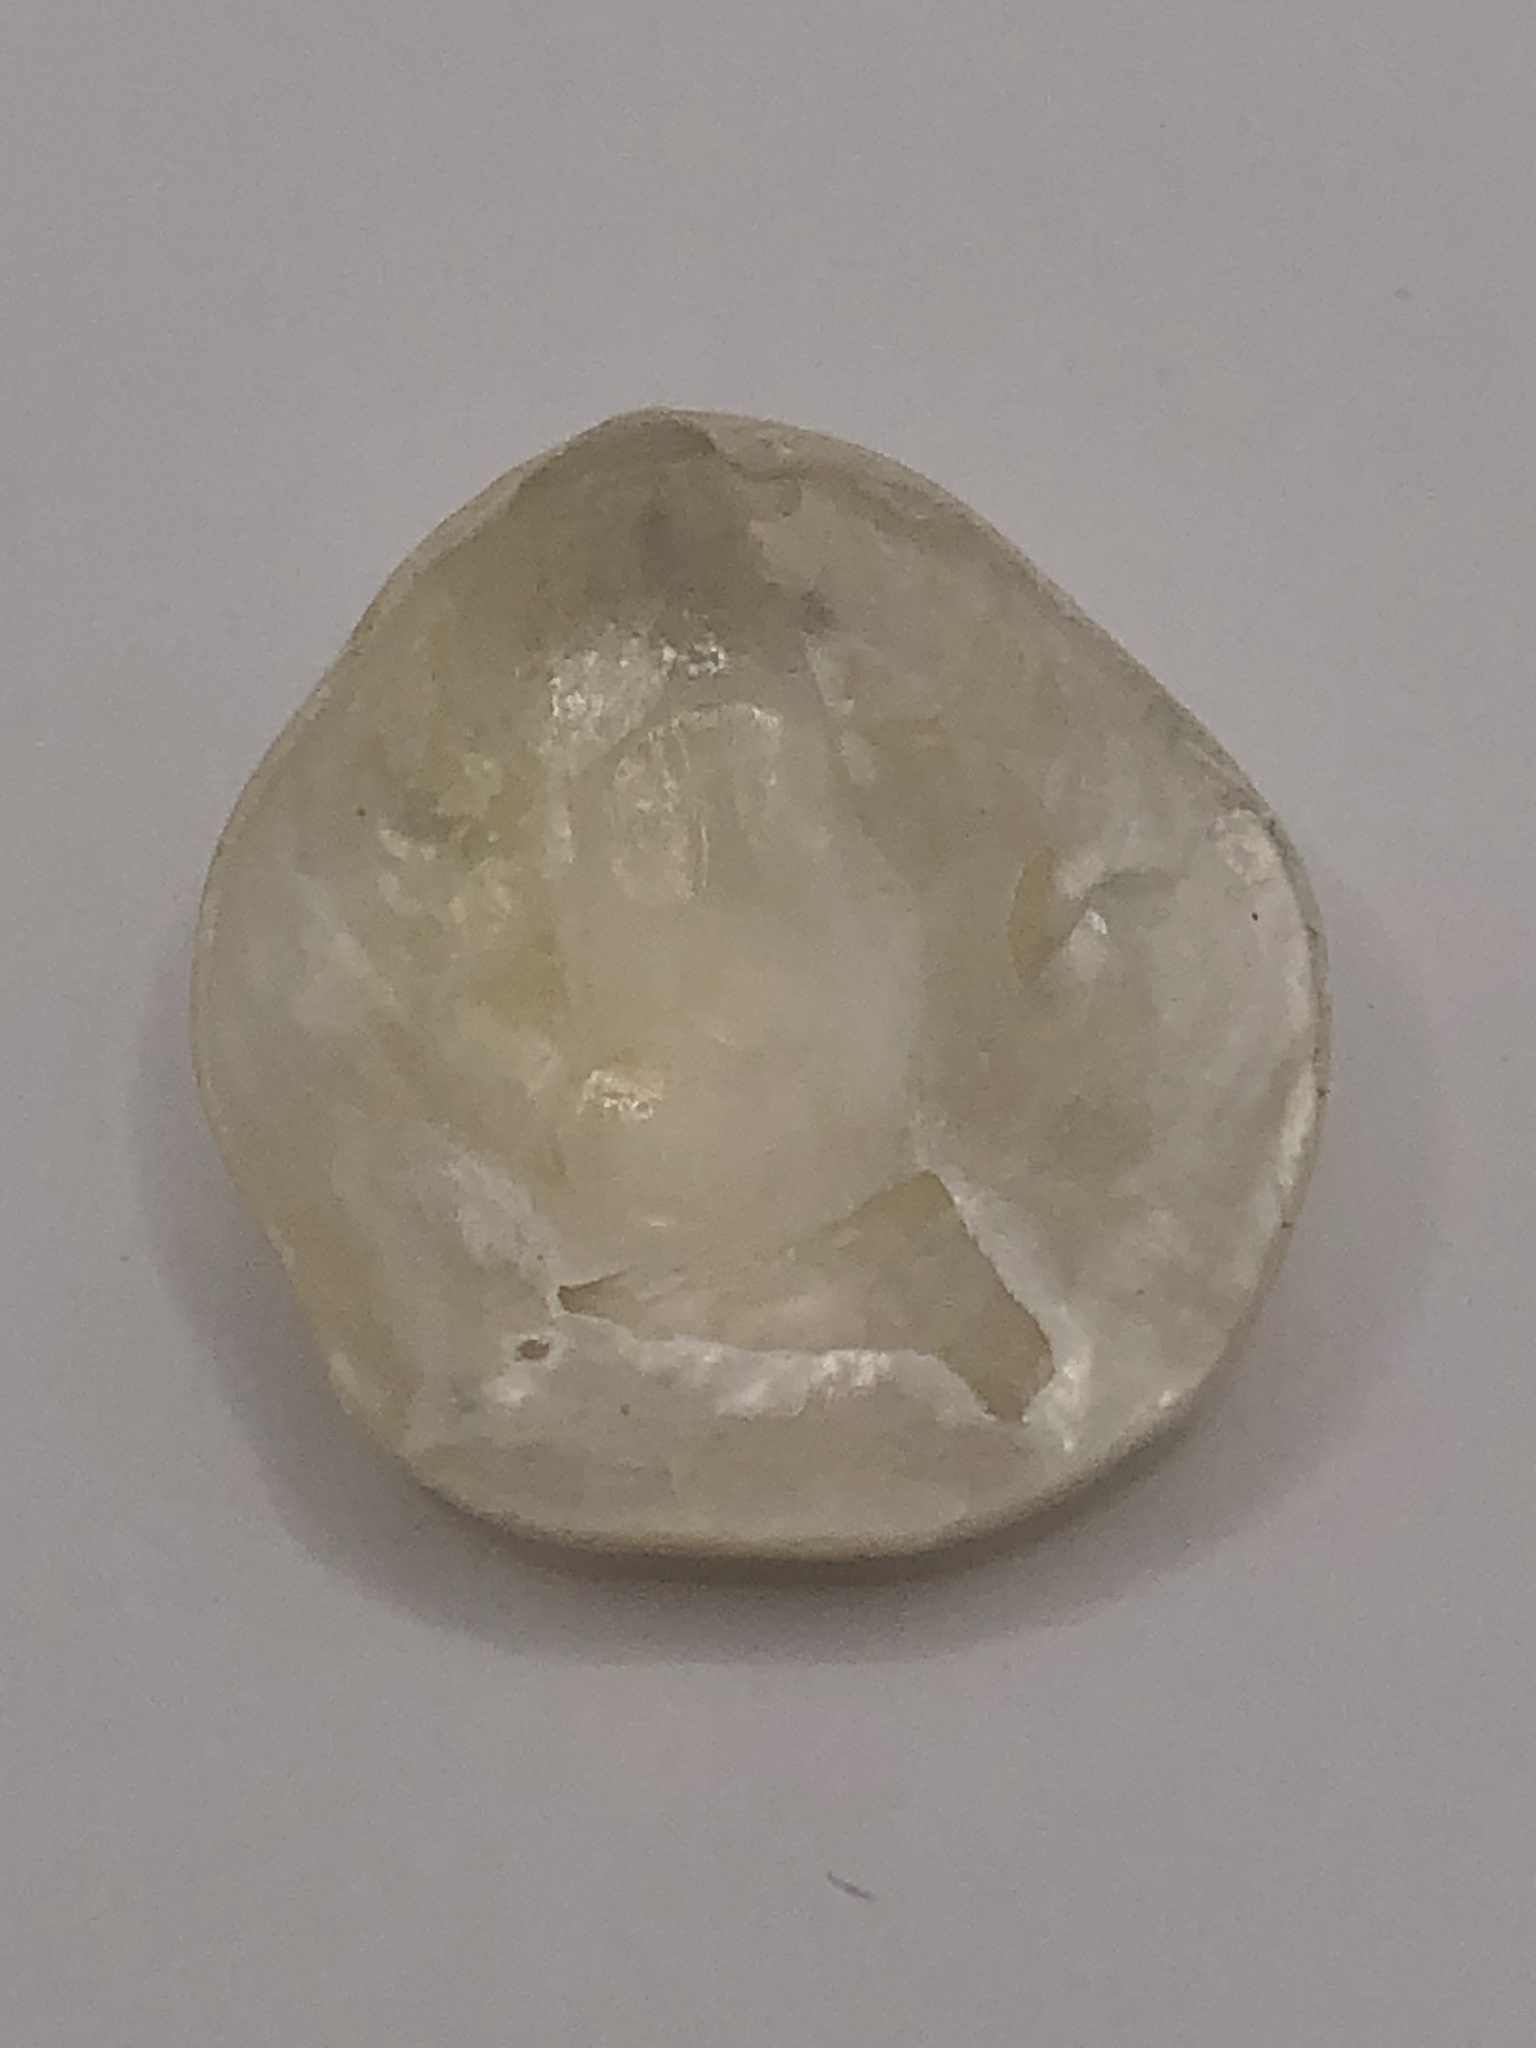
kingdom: Animalia
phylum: Mollusca
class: Bivalvia
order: Pectinida
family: Anomiidae
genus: Anomia
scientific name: Anomia simplex
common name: Common jingle shell
